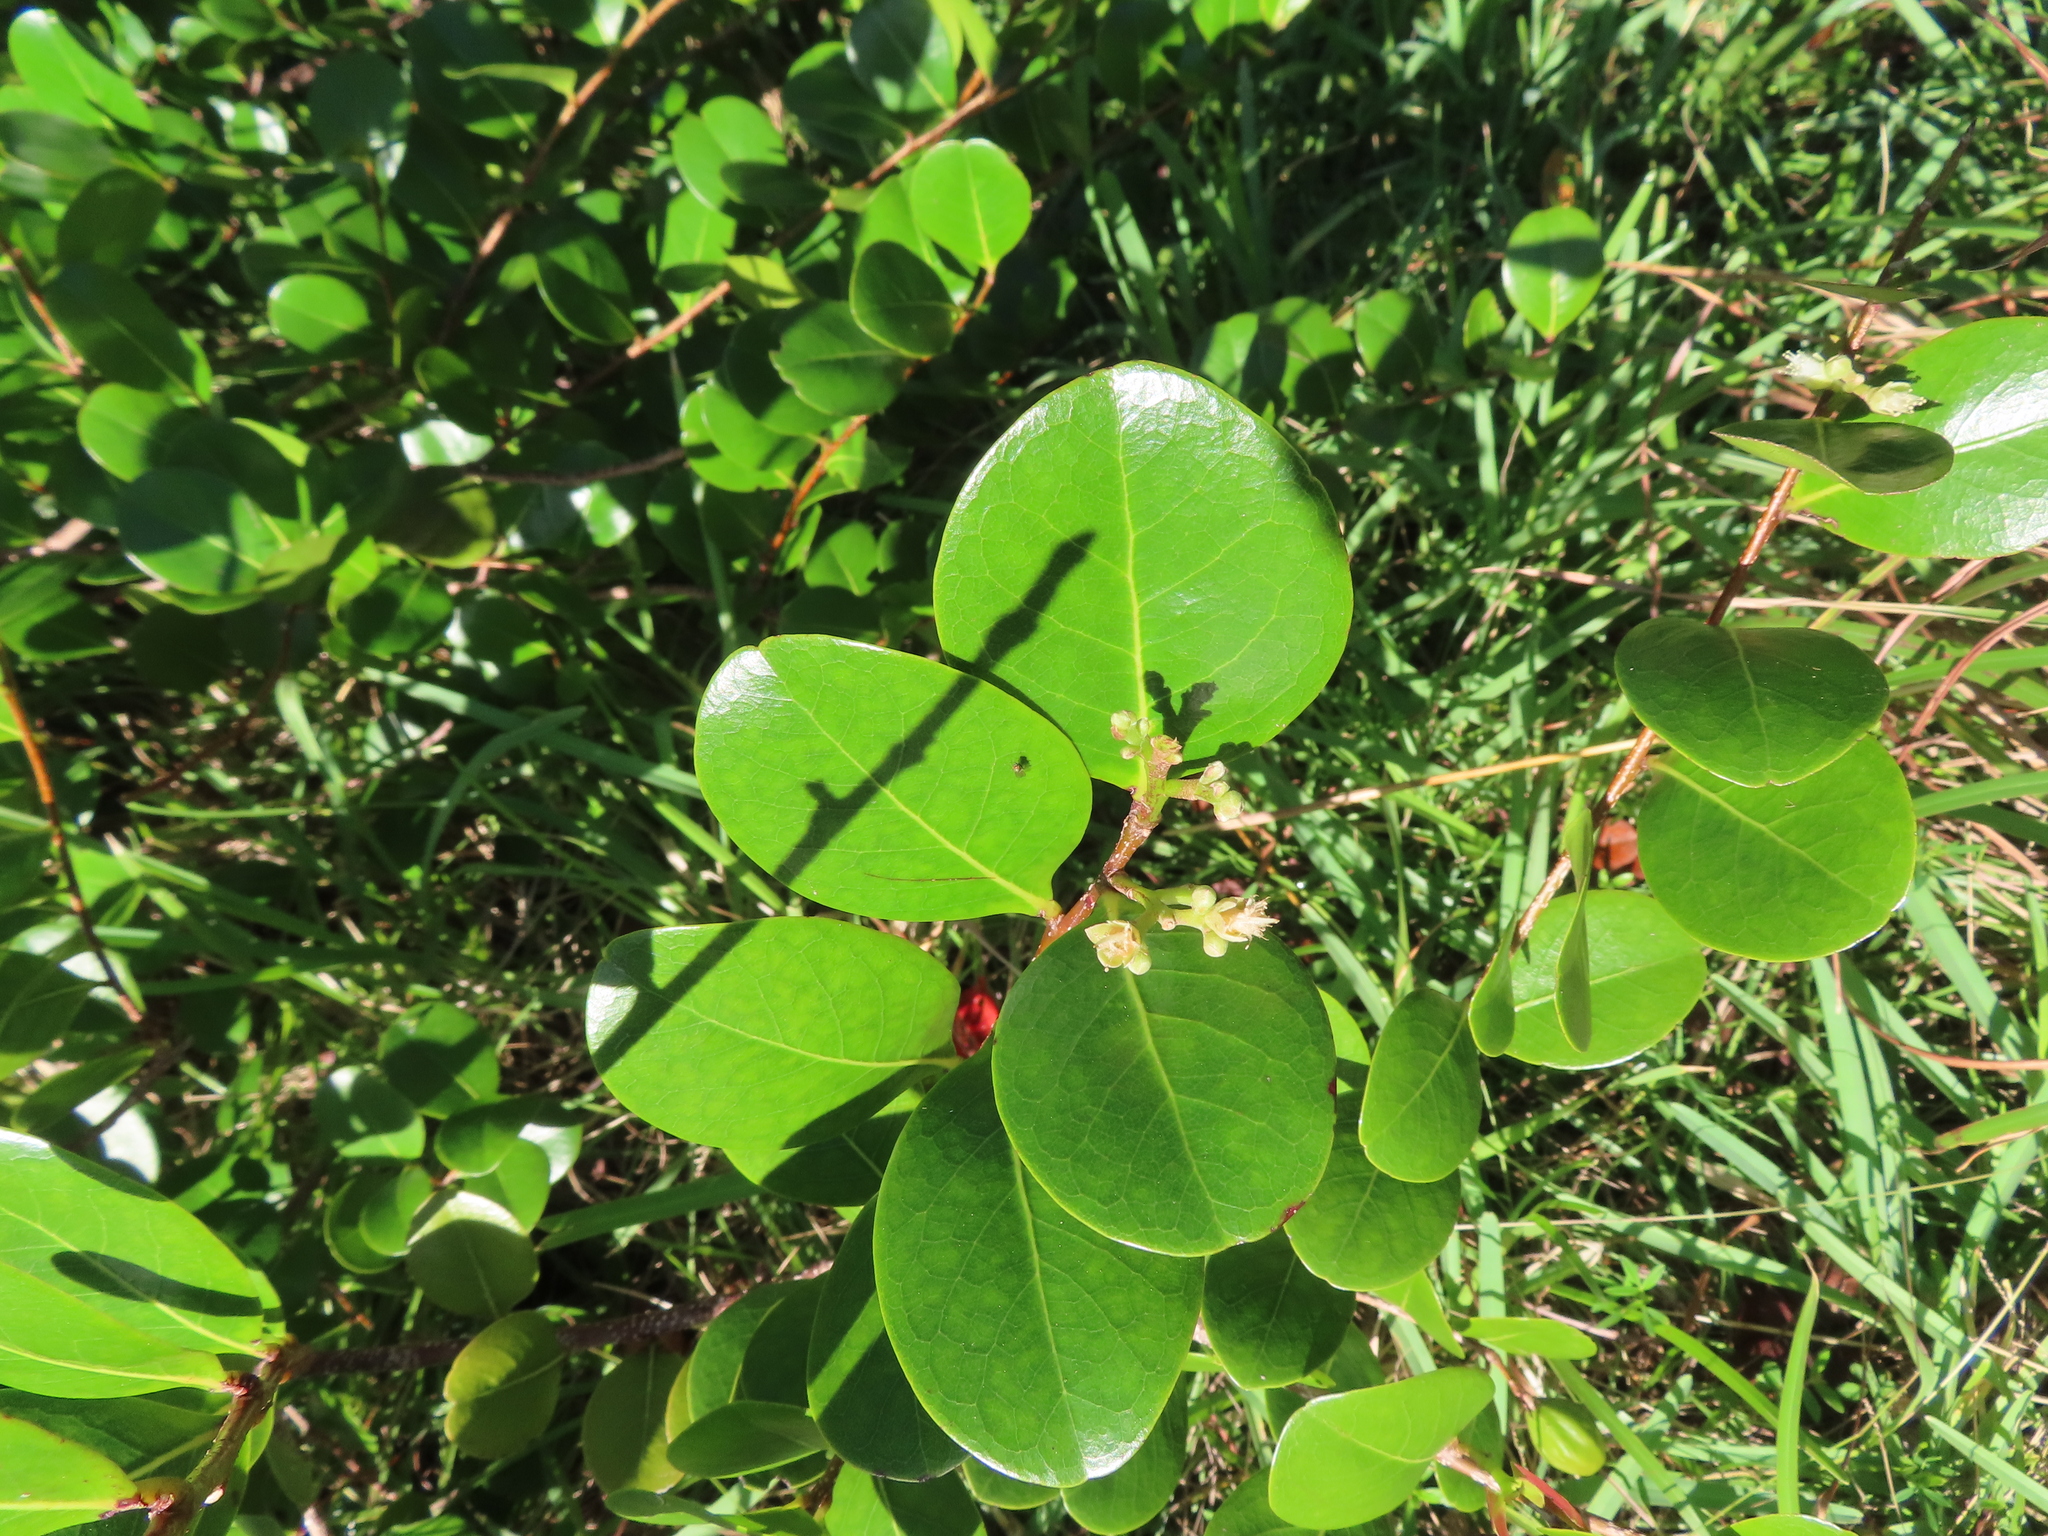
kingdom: Plantae
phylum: Tracheophyta
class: Magnoliopsida
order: Malpighiales
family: Chrysobalanaceae
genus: Chrysobalanus
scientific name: Chrysobalanus icaco
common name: Coco plum
